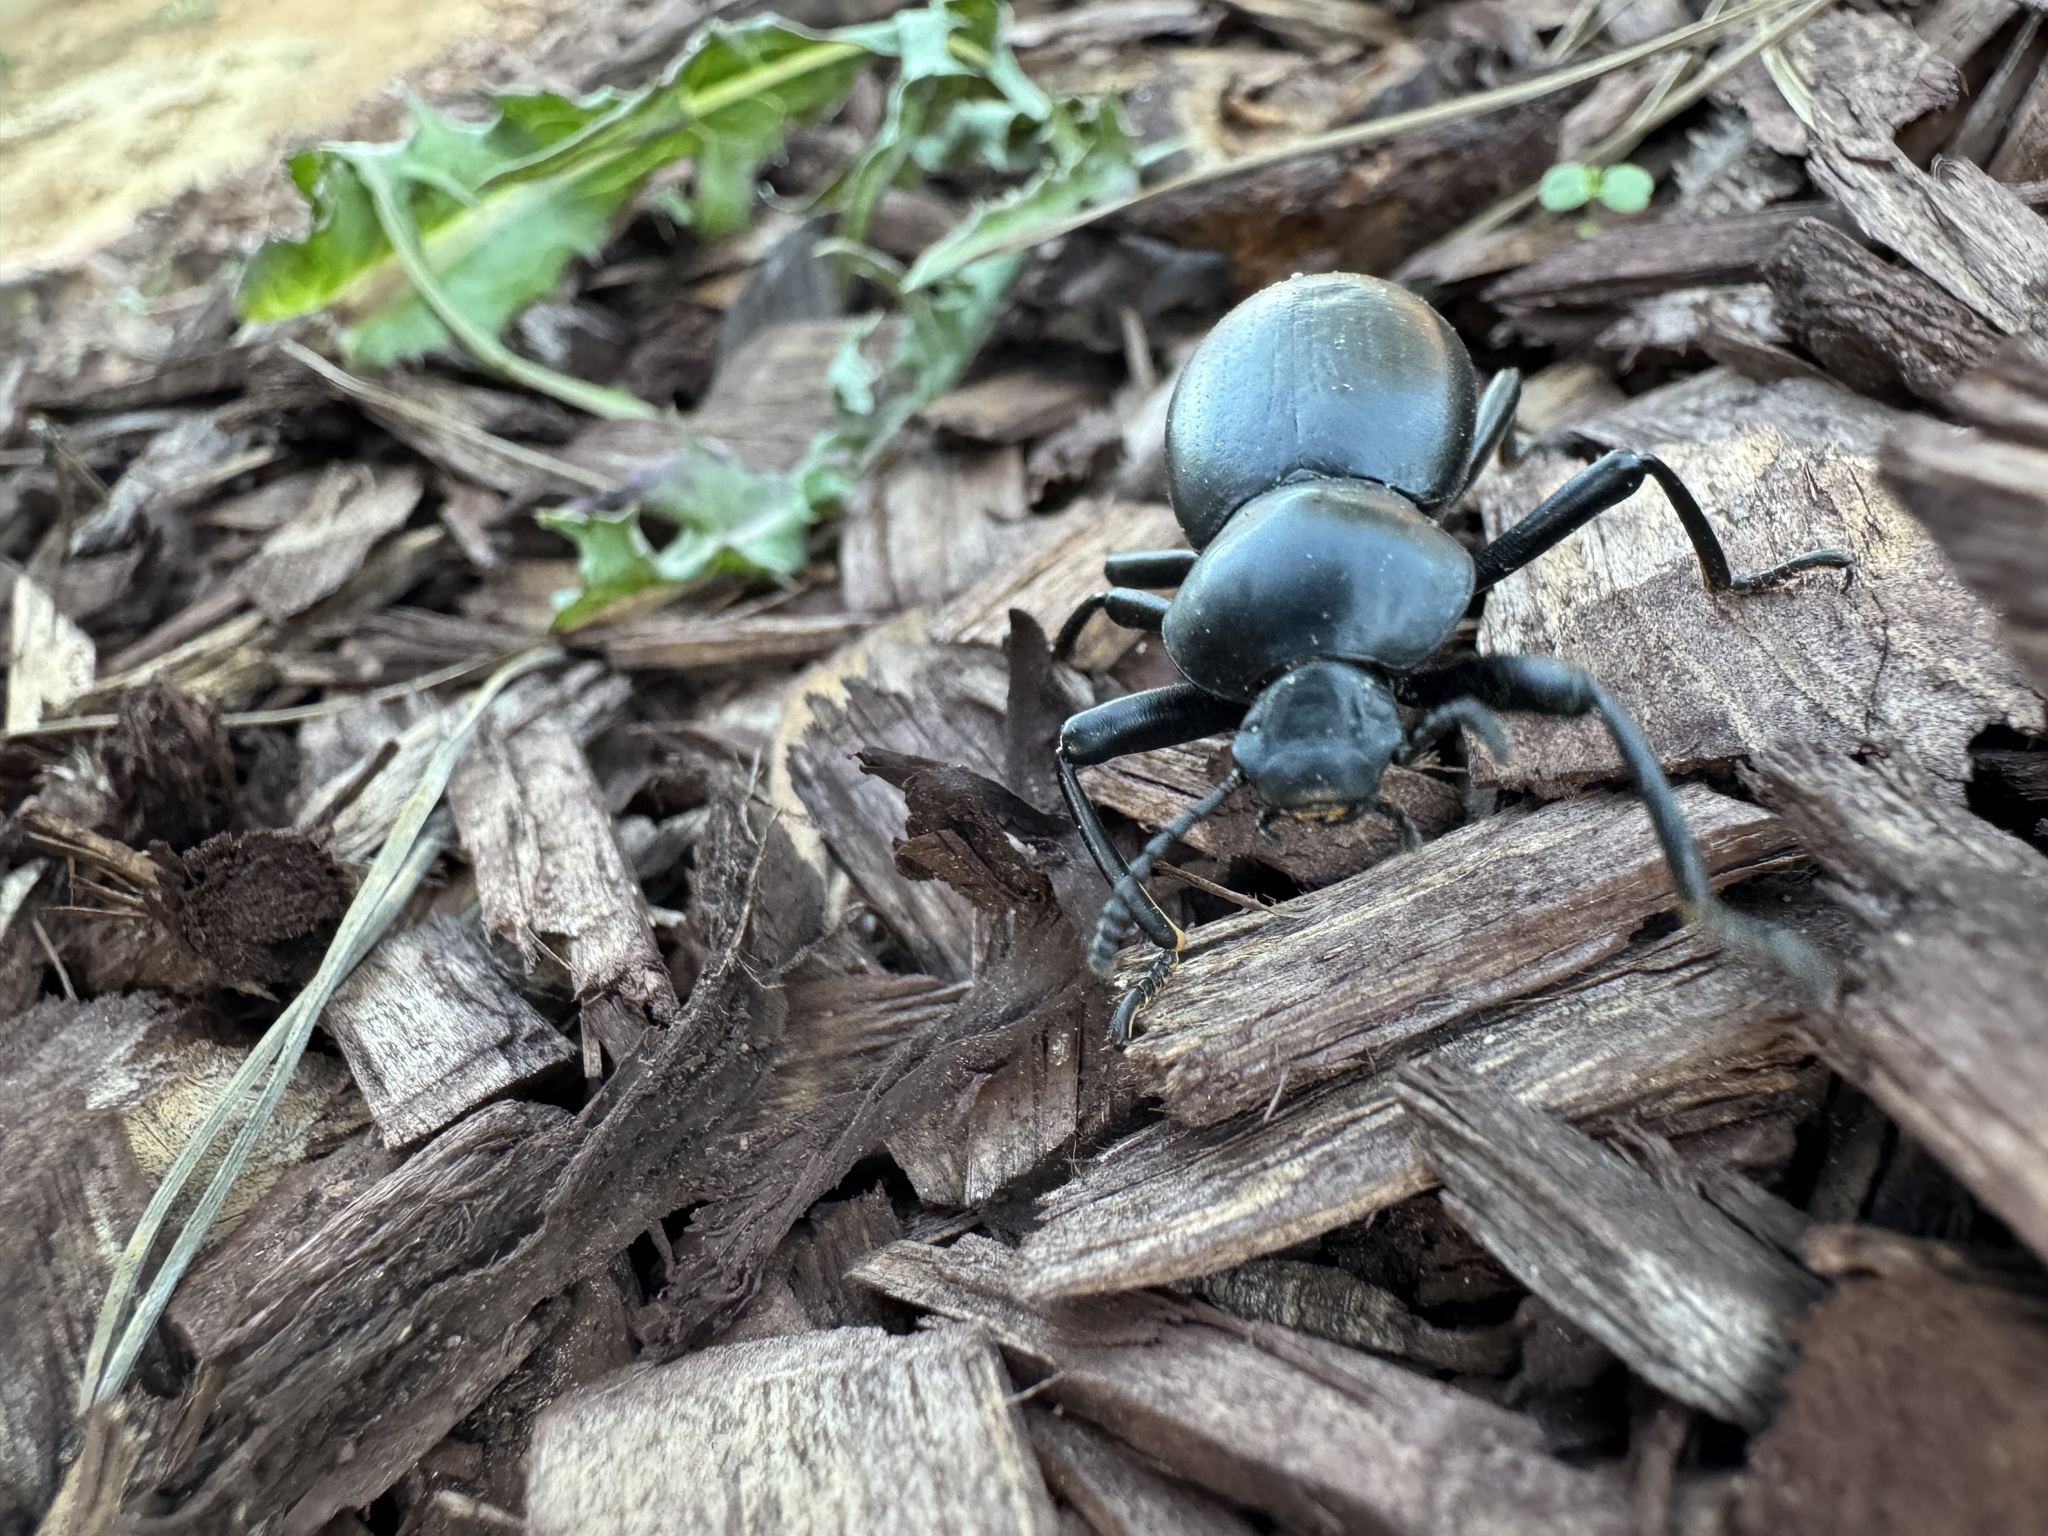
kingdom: Animalia
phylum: Arthropoda
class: Insecta
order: Coleoptera
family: Tenebrionidae
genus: Coelocnemis
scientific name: Coelocnemis magna
